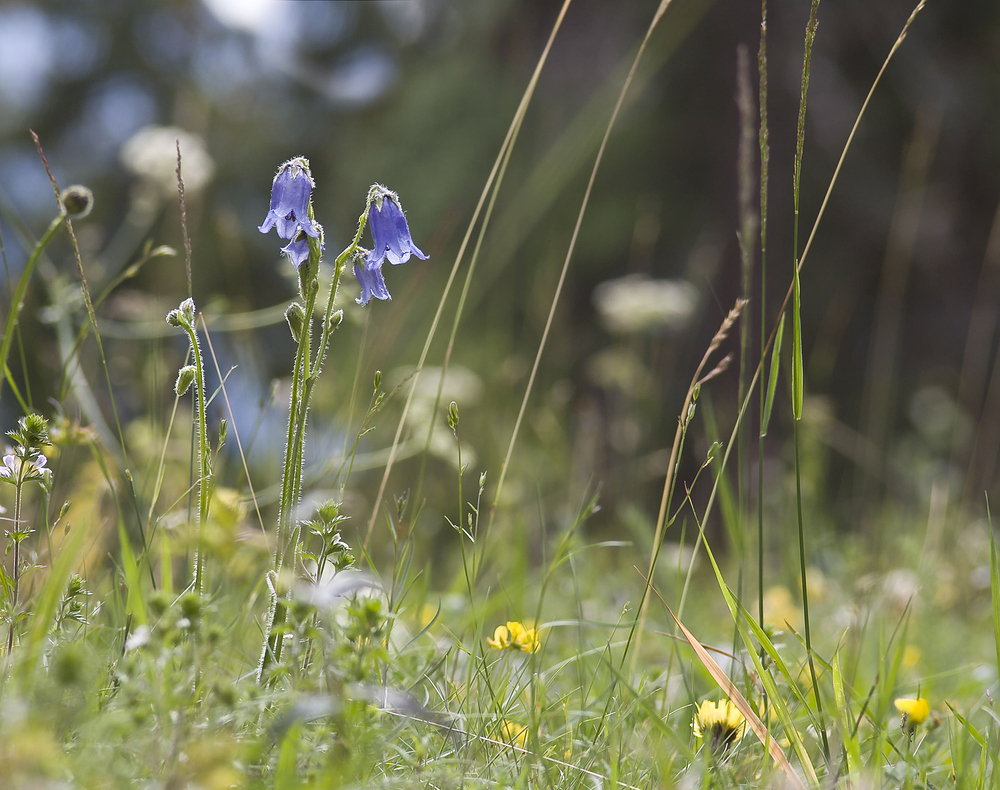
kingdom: Plantae
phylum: Tracheophyta
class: Magnoliopsida
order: Asterales
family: Campanulaceae
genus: Campanula
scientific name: Campanula barbata
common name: Bearded bellflower
